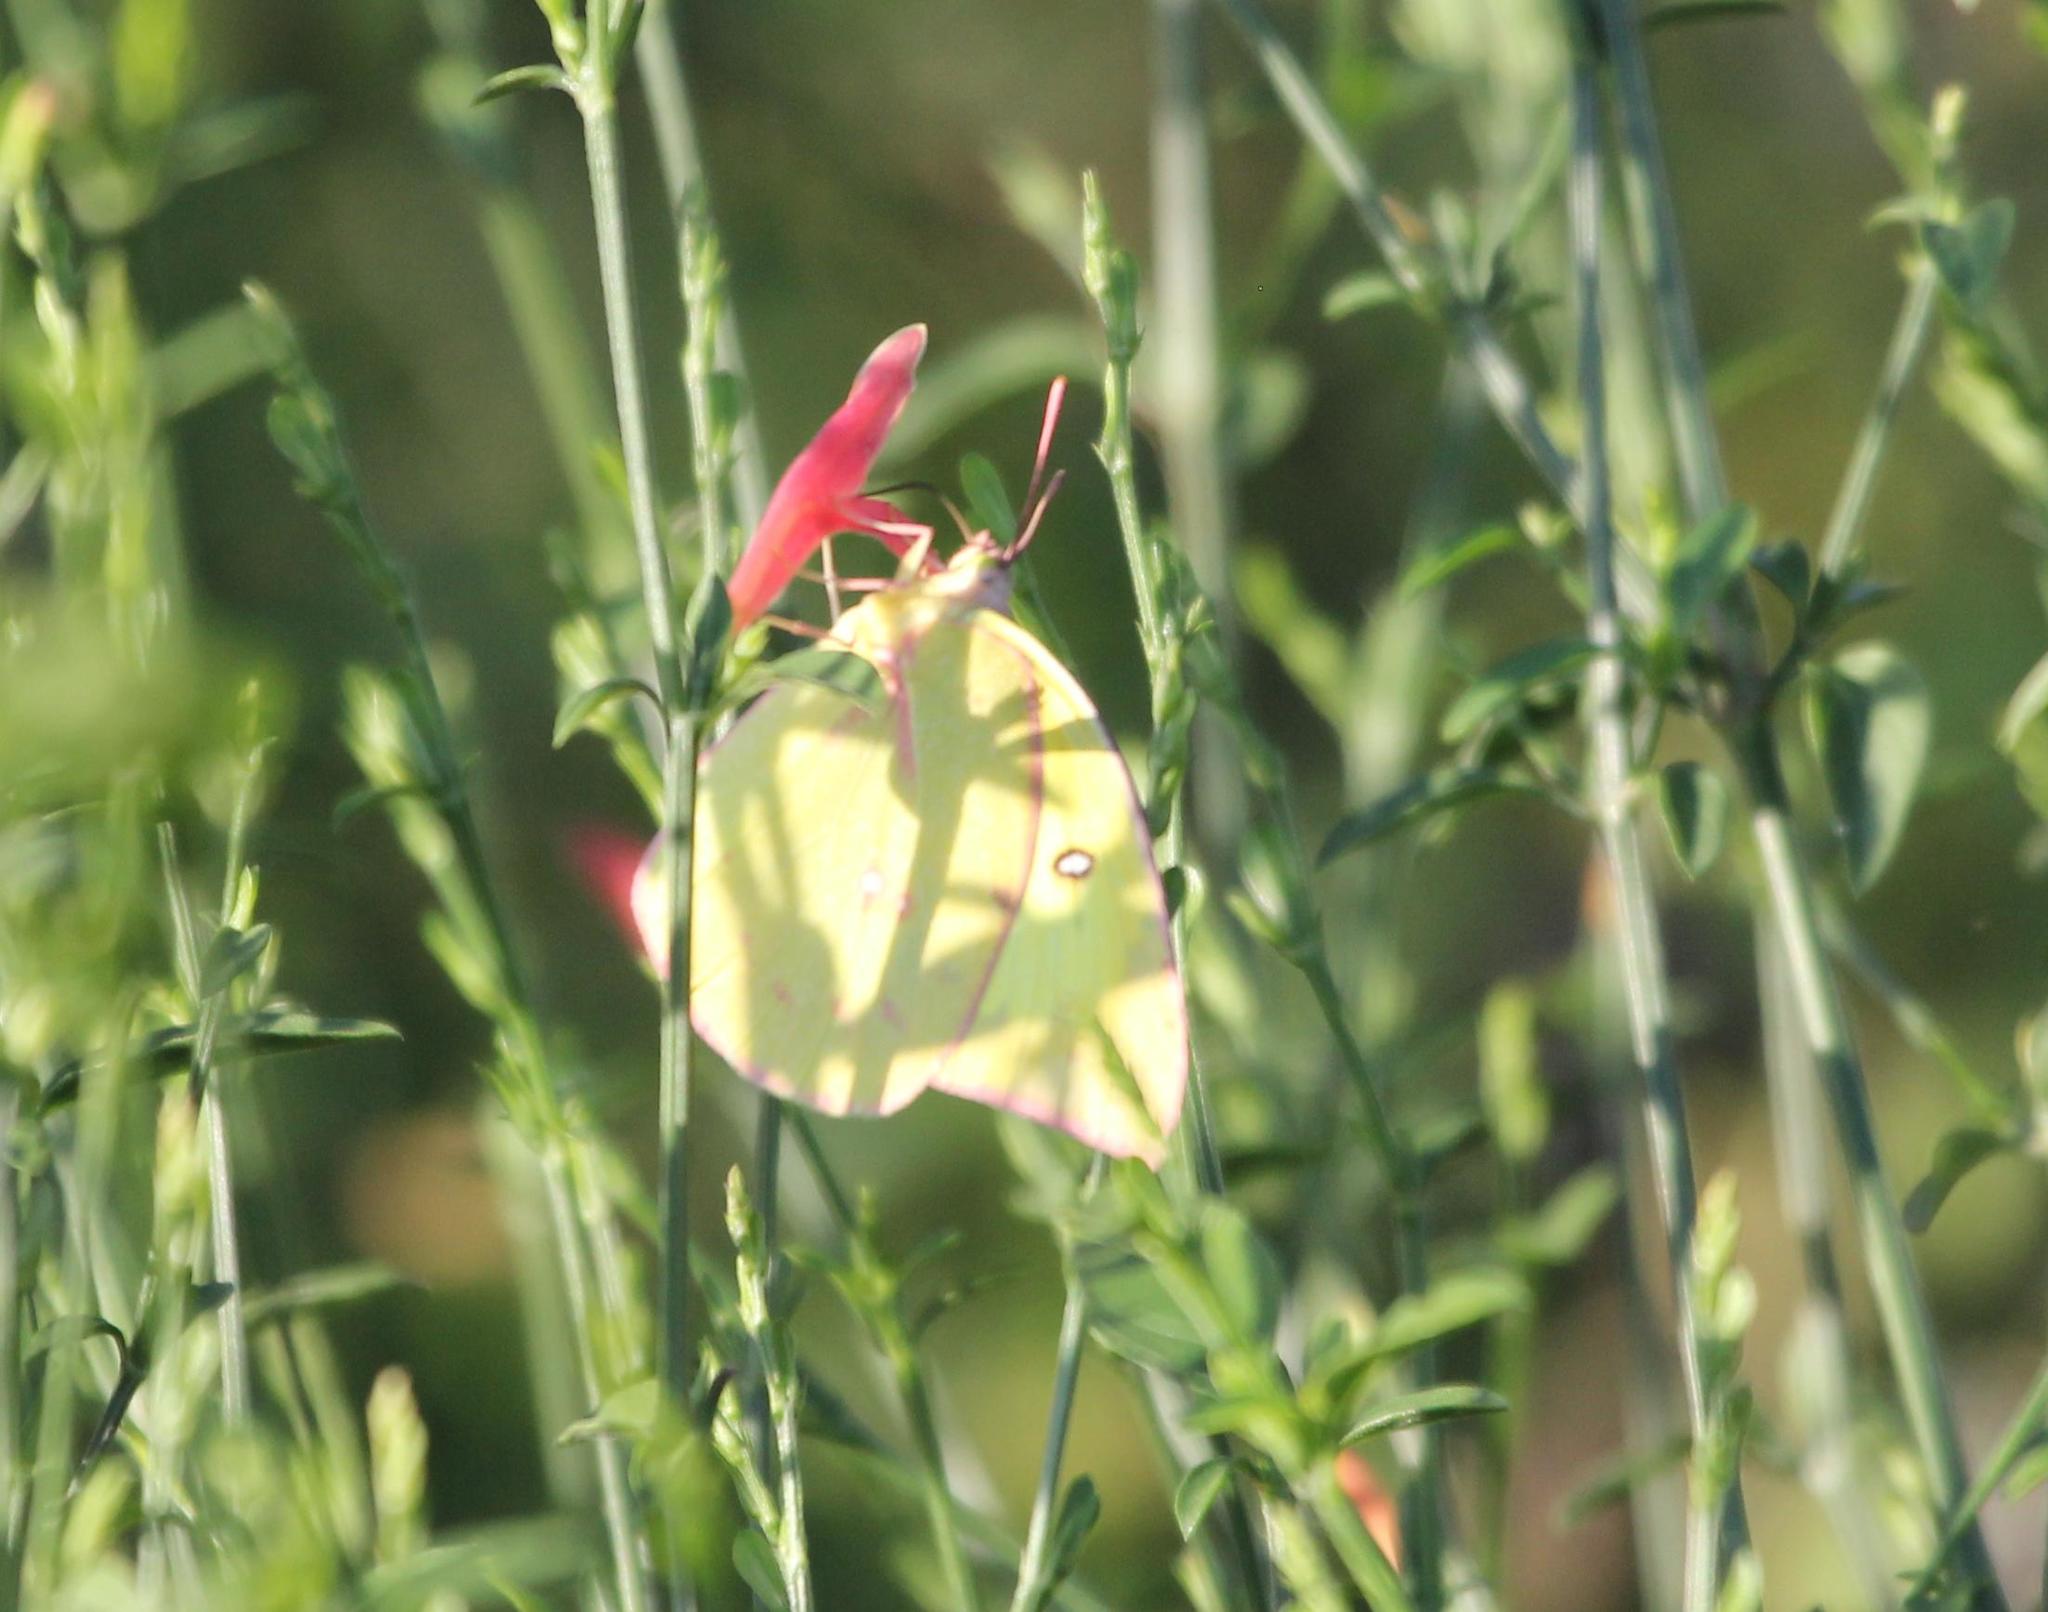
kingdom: Animalia
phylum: Arthropoda
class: Insecta
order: Lepidoptera
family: Pieridae
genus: Zerene
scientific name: Zerene cesonia
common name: Southern dogface
